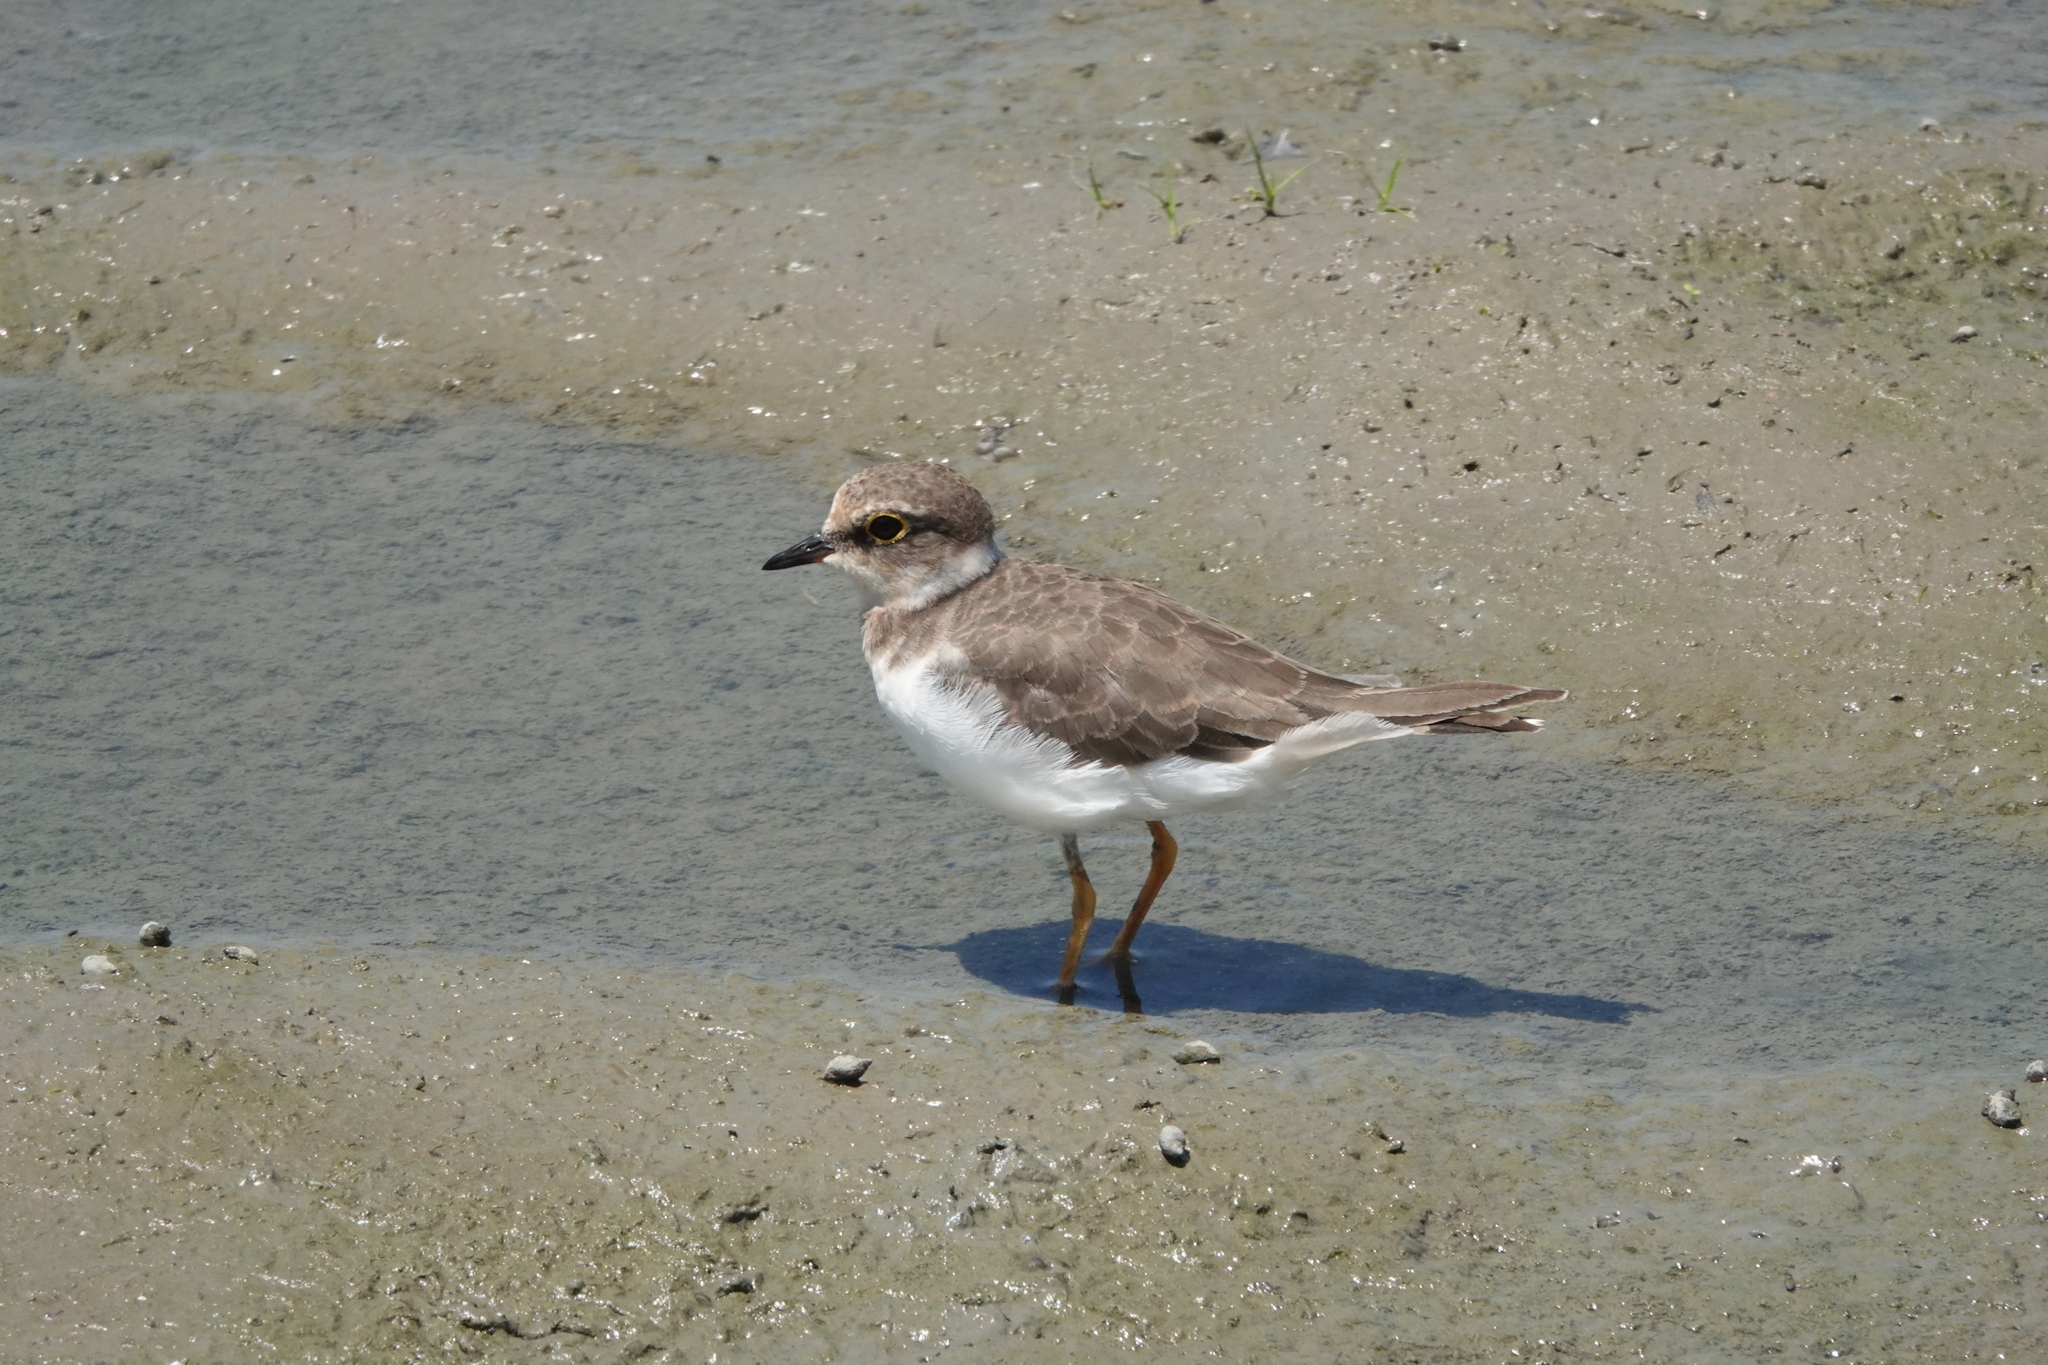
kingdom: Animalia
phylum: Chordata
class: Aves
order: Charadriiformes
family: Charadriidae
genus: Charadrius
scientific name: Charadrius dubius
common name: Little ringed plover
